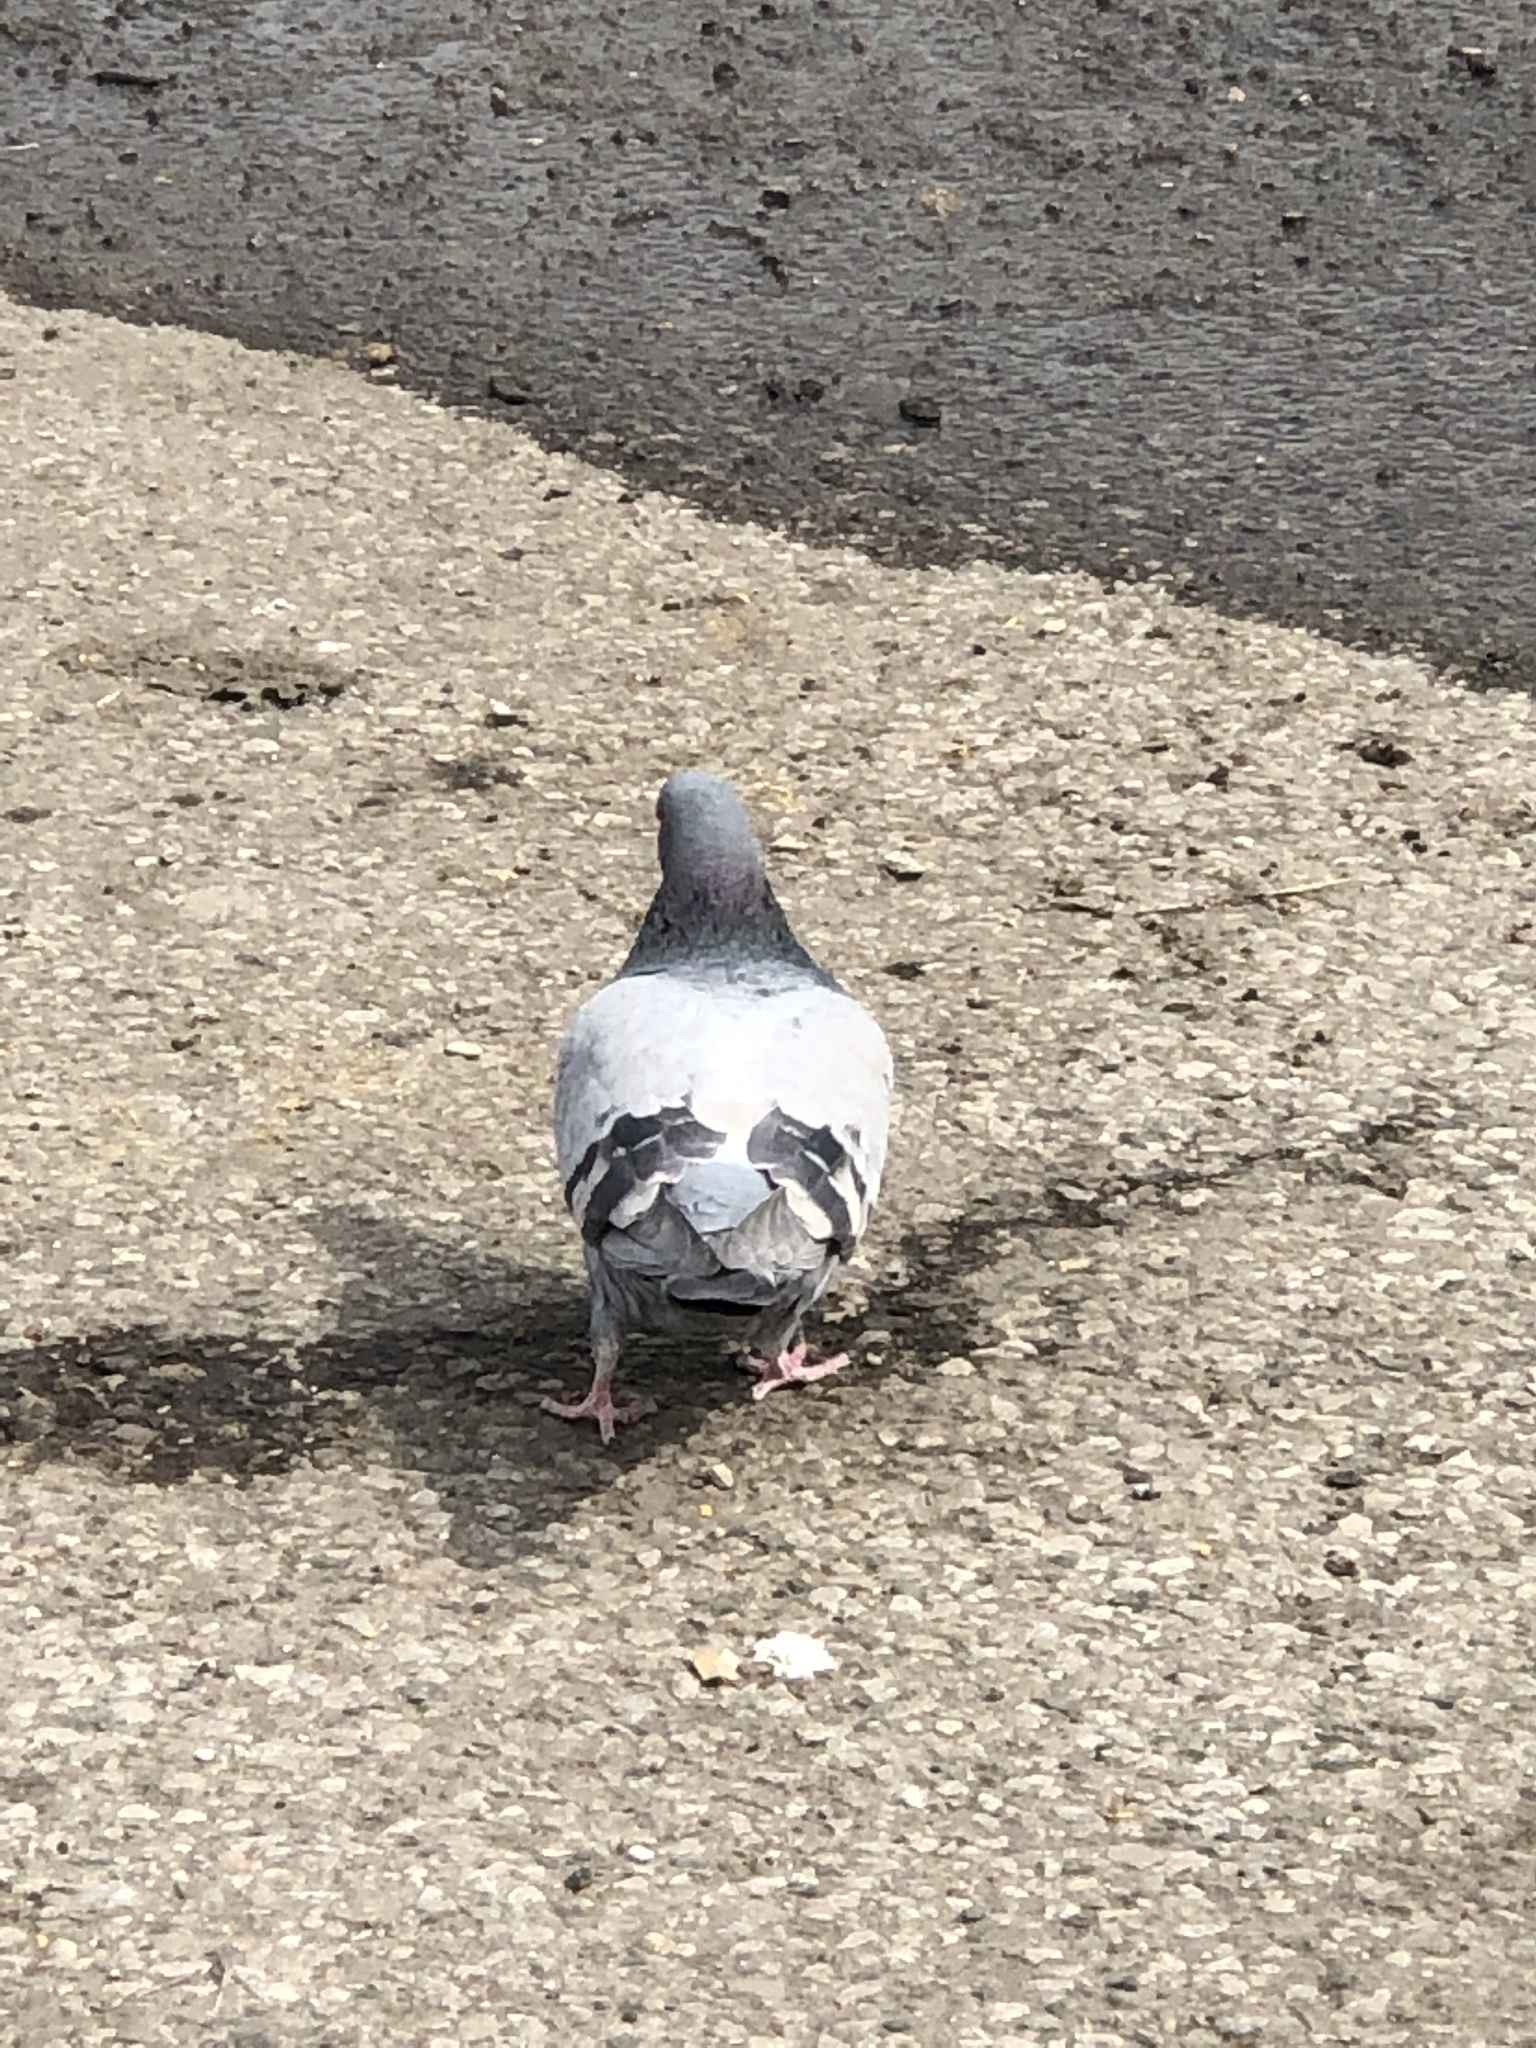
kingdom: Animalia
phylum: Chordata
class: Aves
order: Columbiformes
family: Columbidae
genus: Columba
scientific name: Columba livia
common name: Rock pigeon
